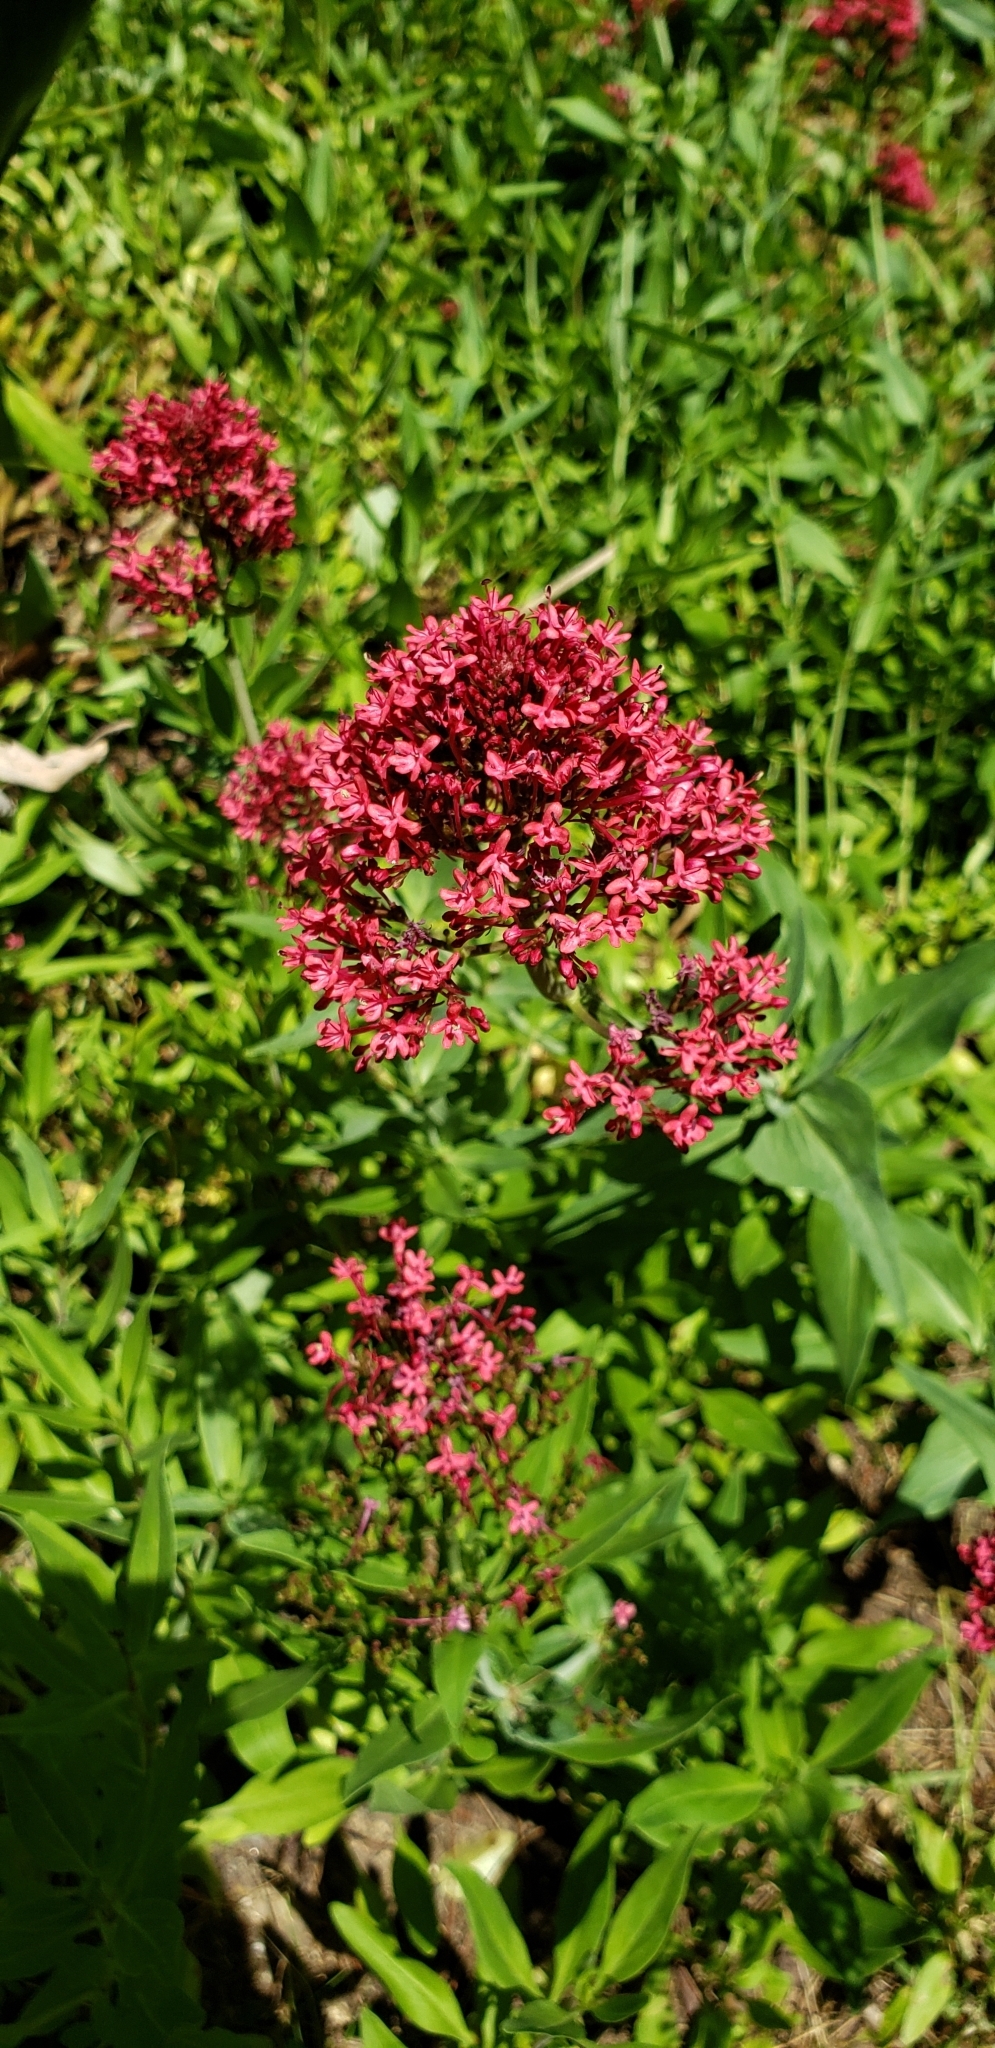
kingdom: Plantae
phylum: Tracheophyta
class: Magnoliopsida
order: Dipsacales
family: Caprifoliaceae
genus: Centranthus
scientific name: Centranthus ruber
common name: Red valerian
